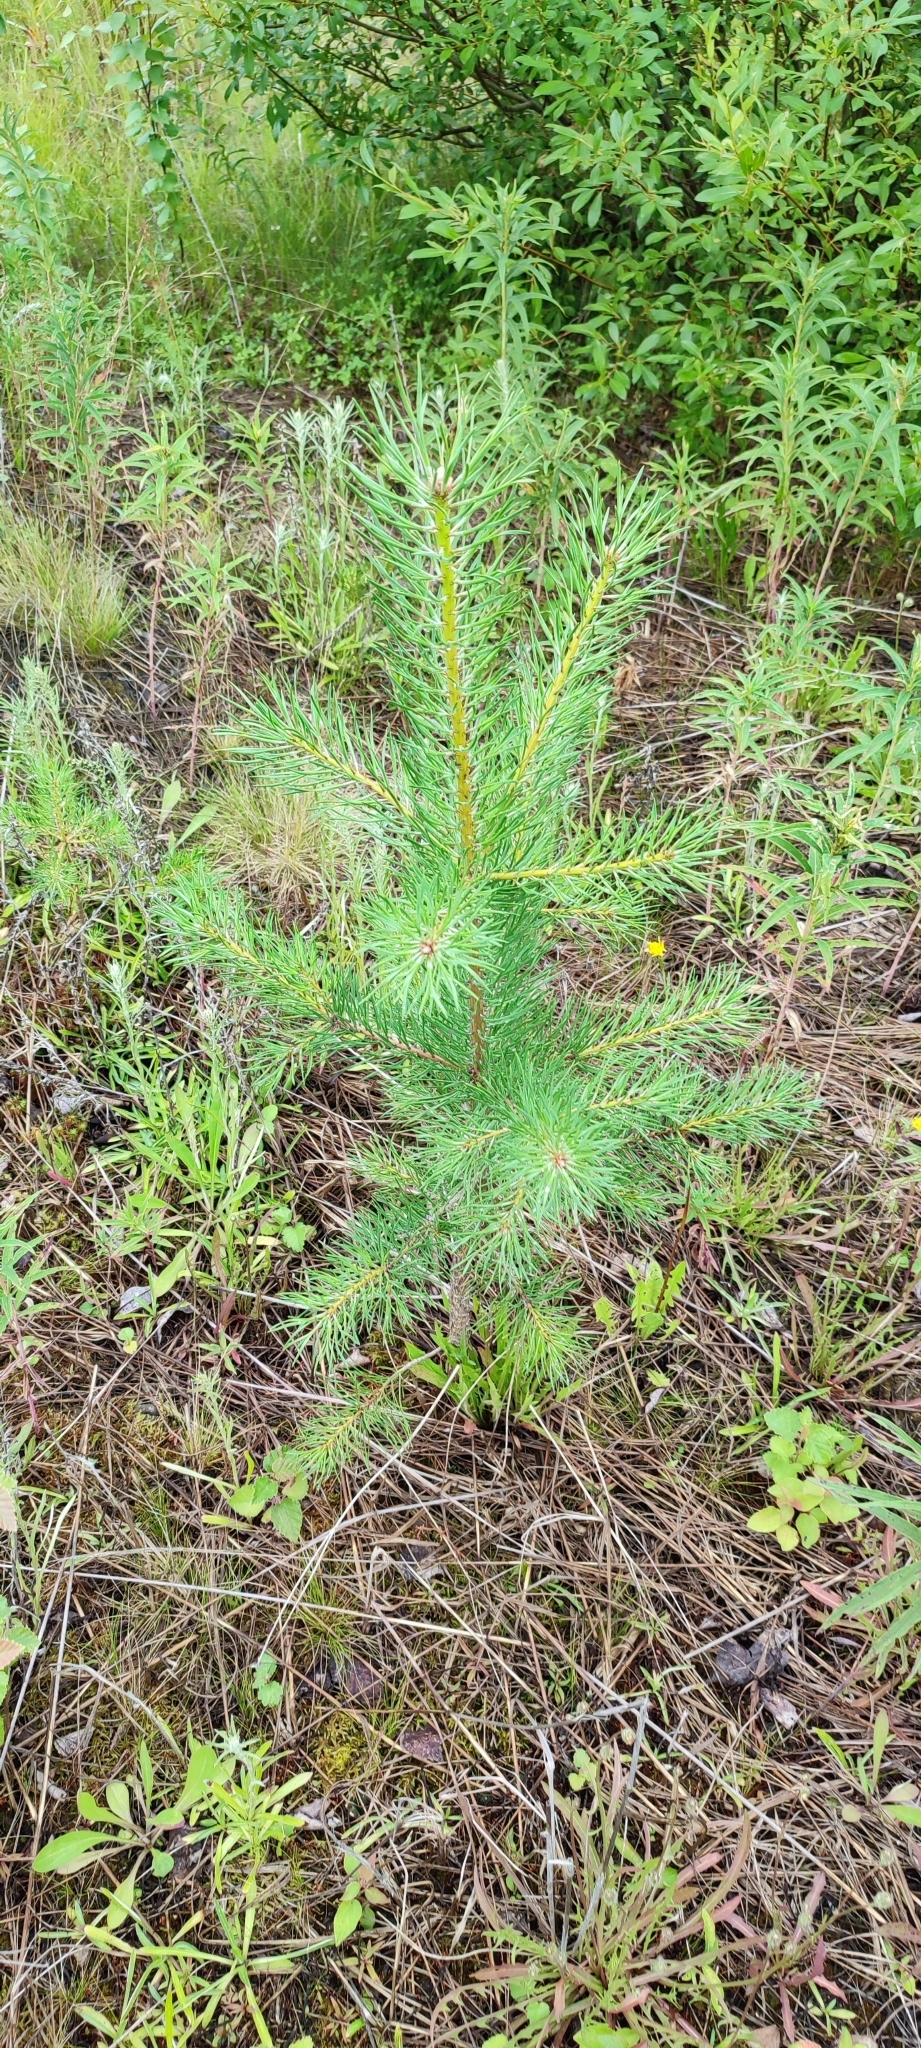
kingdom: Plantae
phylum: Tracheophyta
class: Pinopsida
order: Pinales
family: Pinaceae
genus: Pinus
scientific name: Pinus sylvestris
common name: Scots pine
